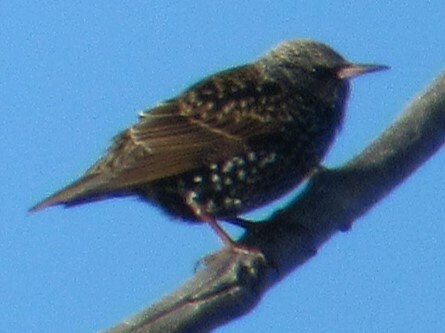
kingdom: Animalia
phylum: Chordata
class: Aves
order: Passeriformes
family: Sturnidae
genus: Sturnus
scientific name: Sturnus vulgaris
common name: Common starling
